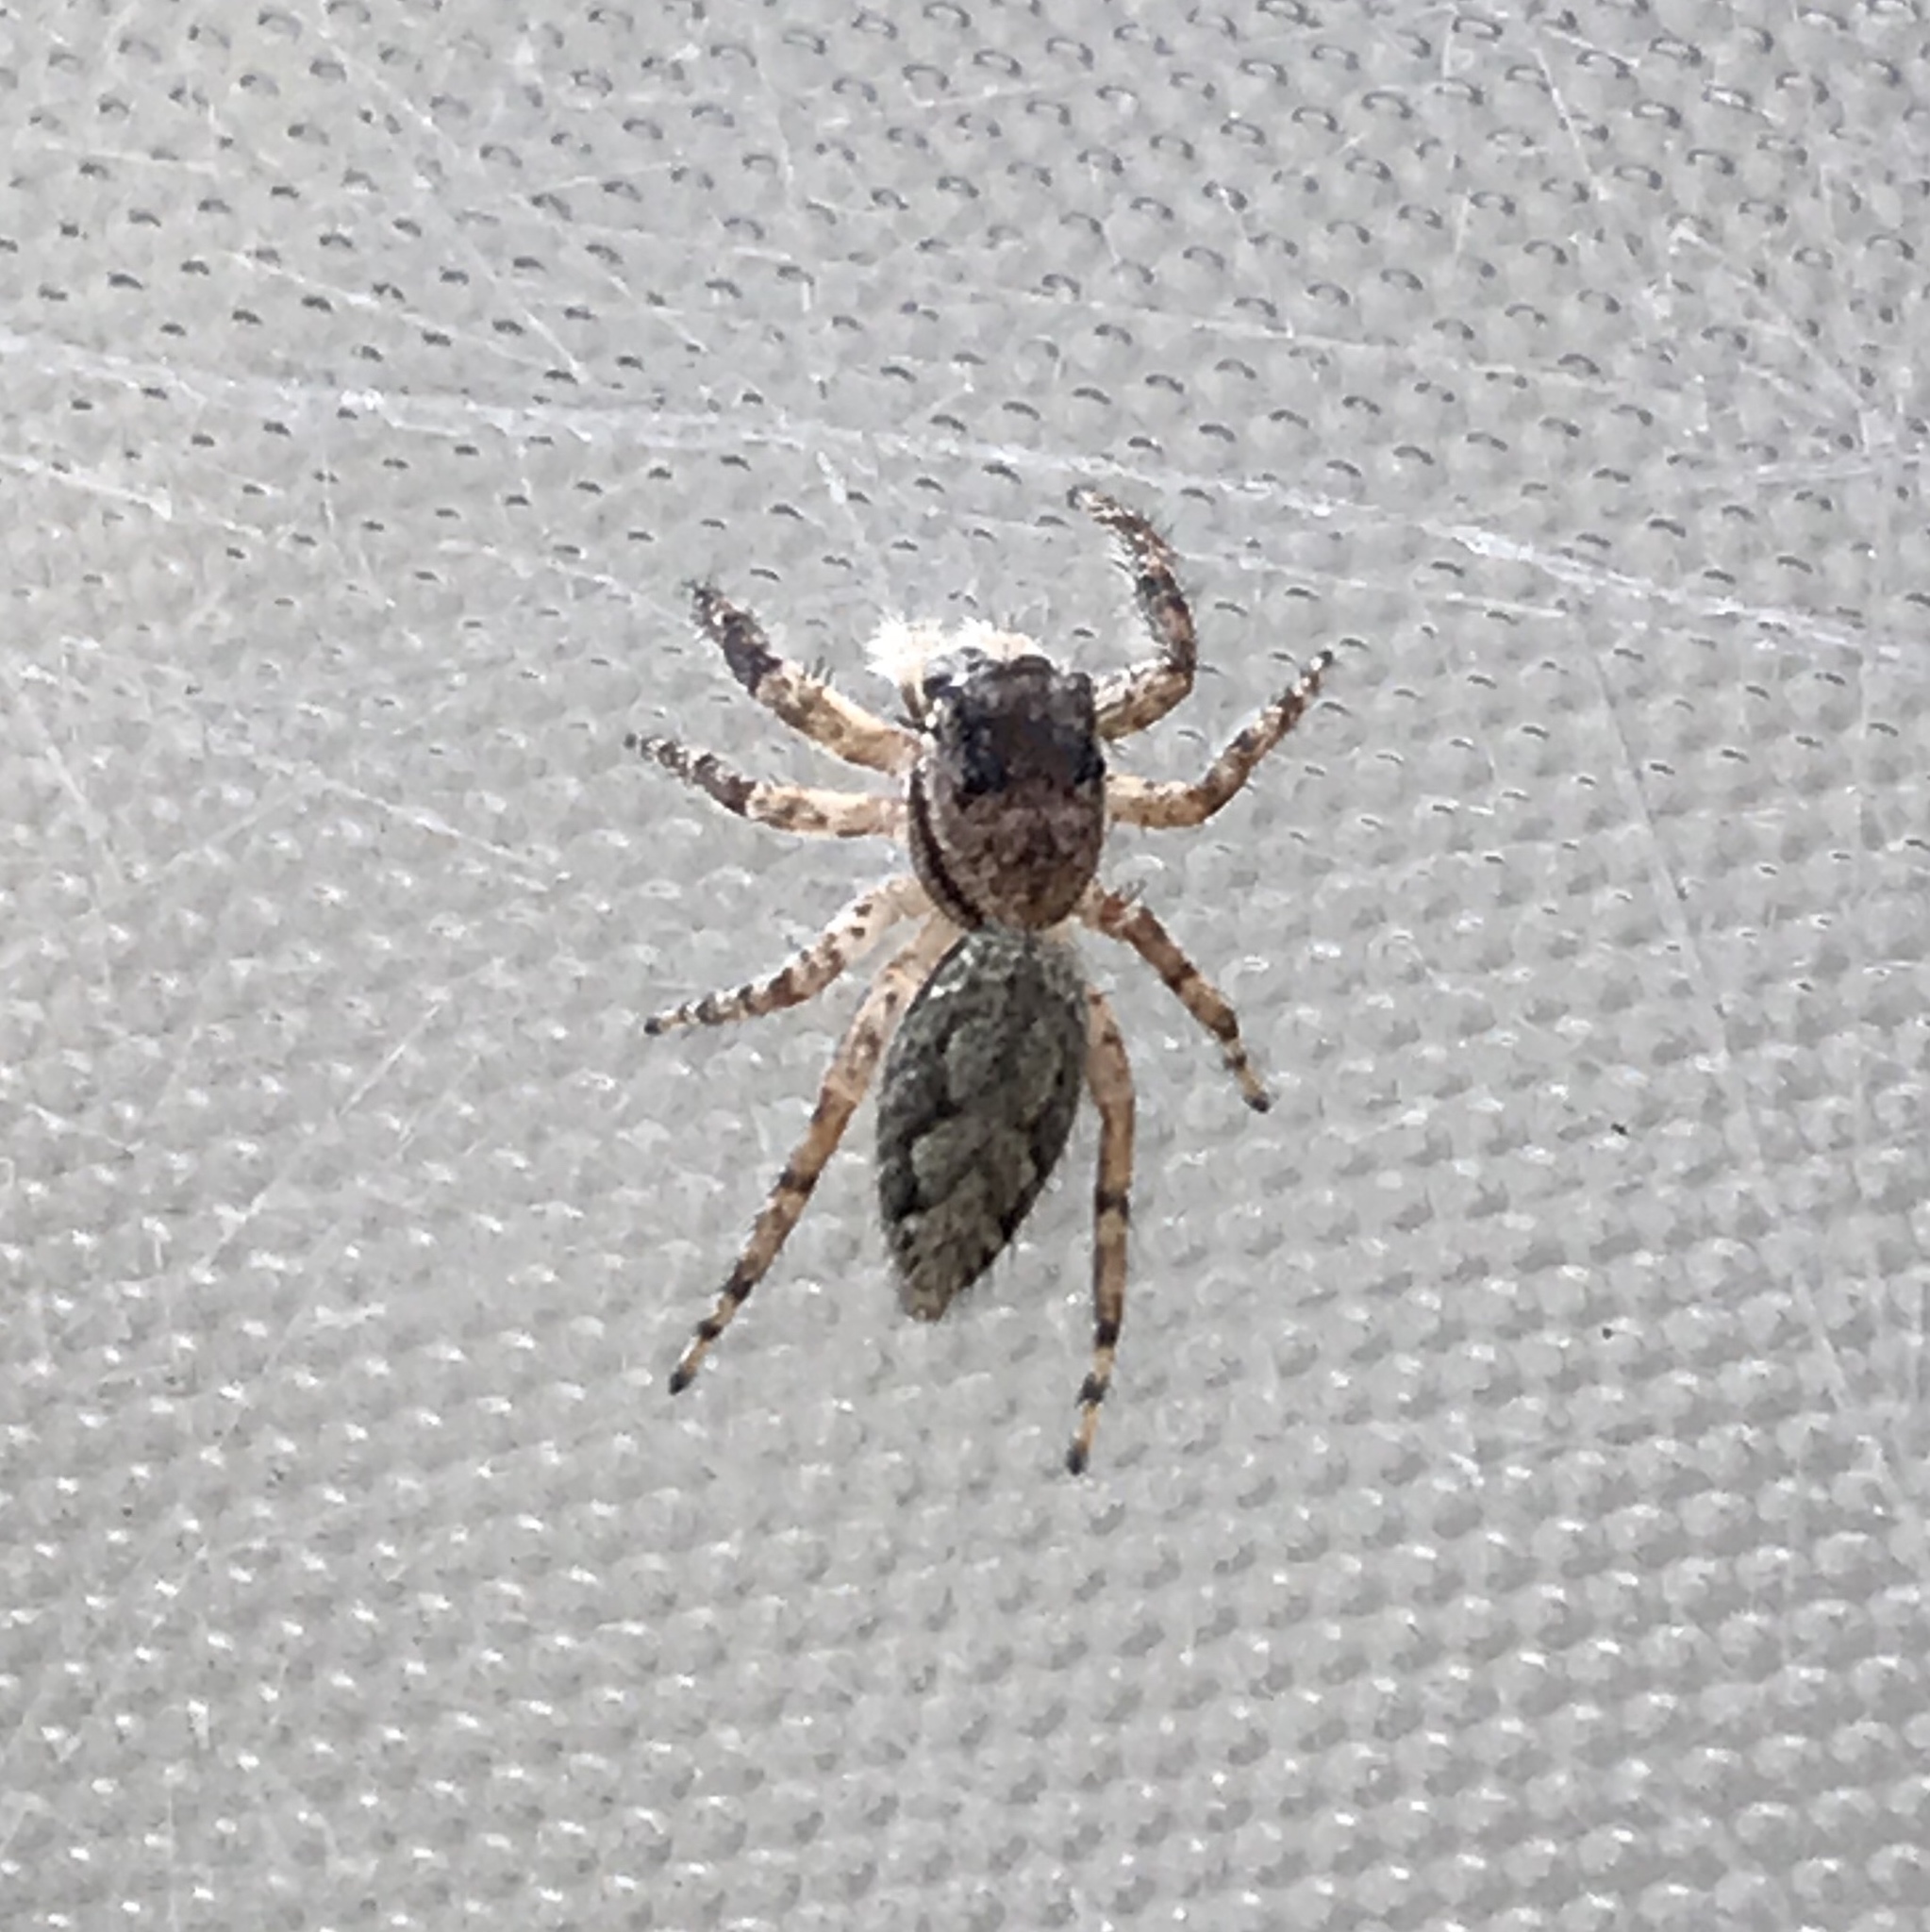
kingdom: Animalia
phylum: Arthropoda
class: Arachnida
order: Araneae
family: Salticidae
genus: Platycryptus
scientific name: Platycryptus undatus
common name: Tan jumping spider
